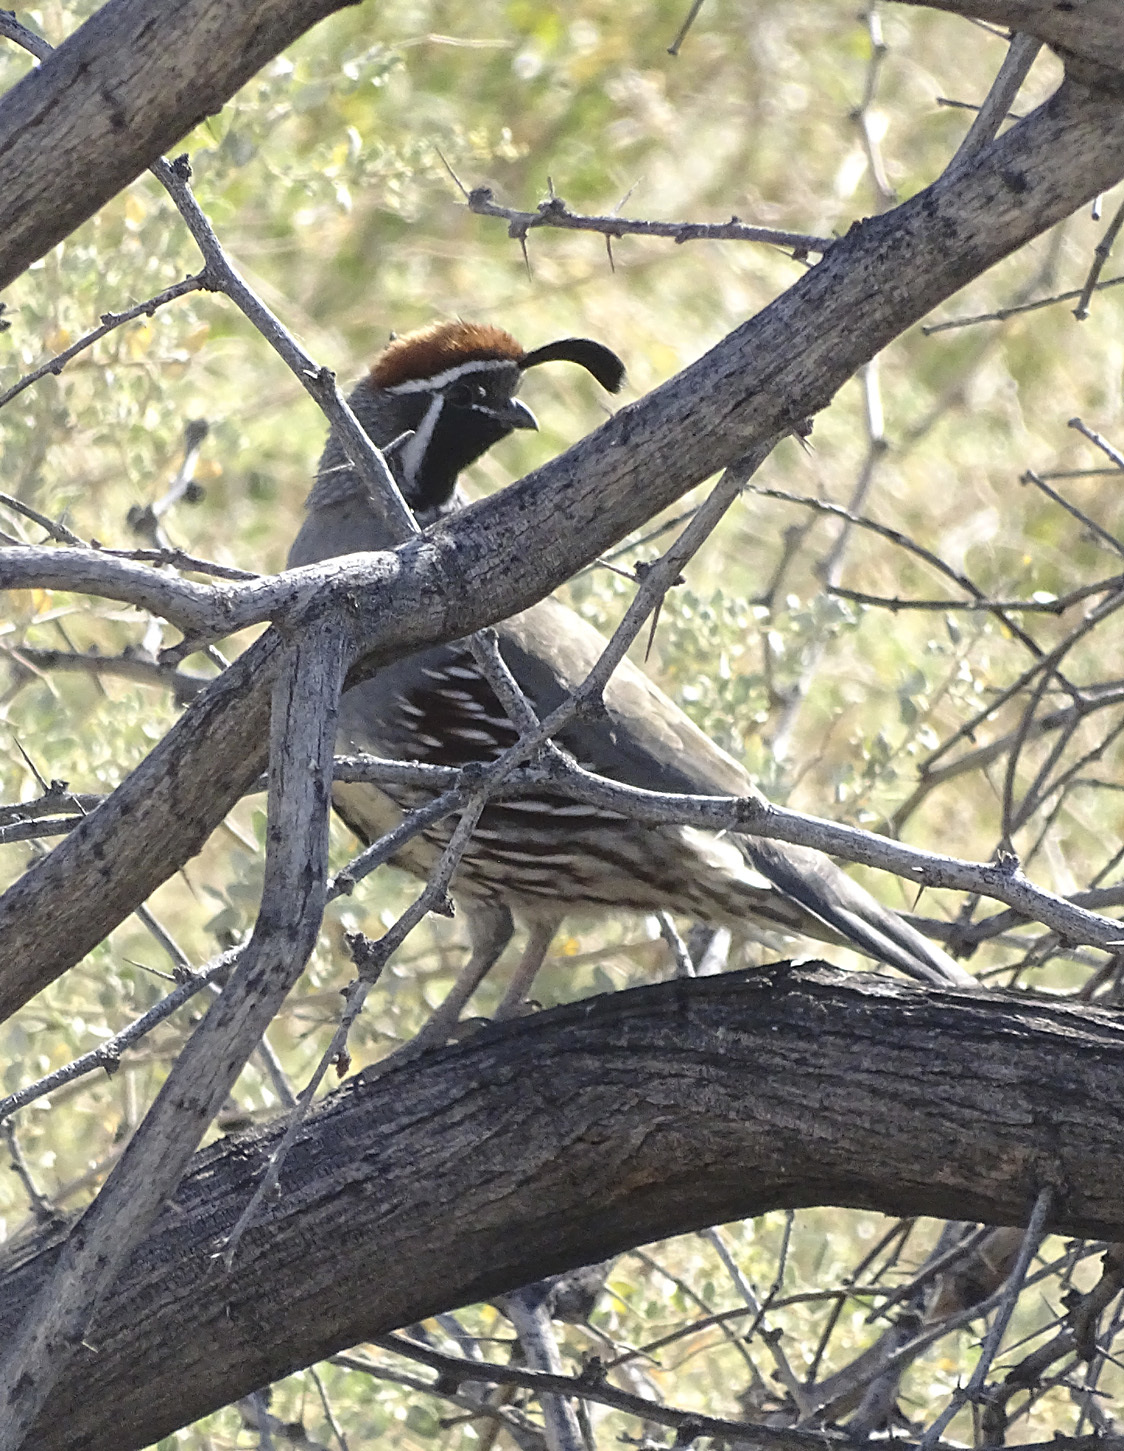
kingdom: Animalia
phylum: Chordata
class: Aves
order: Galliformes
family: Odontophoridae
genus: Callipepla
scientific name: Callipepla gambelii
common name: Gambel's quail
